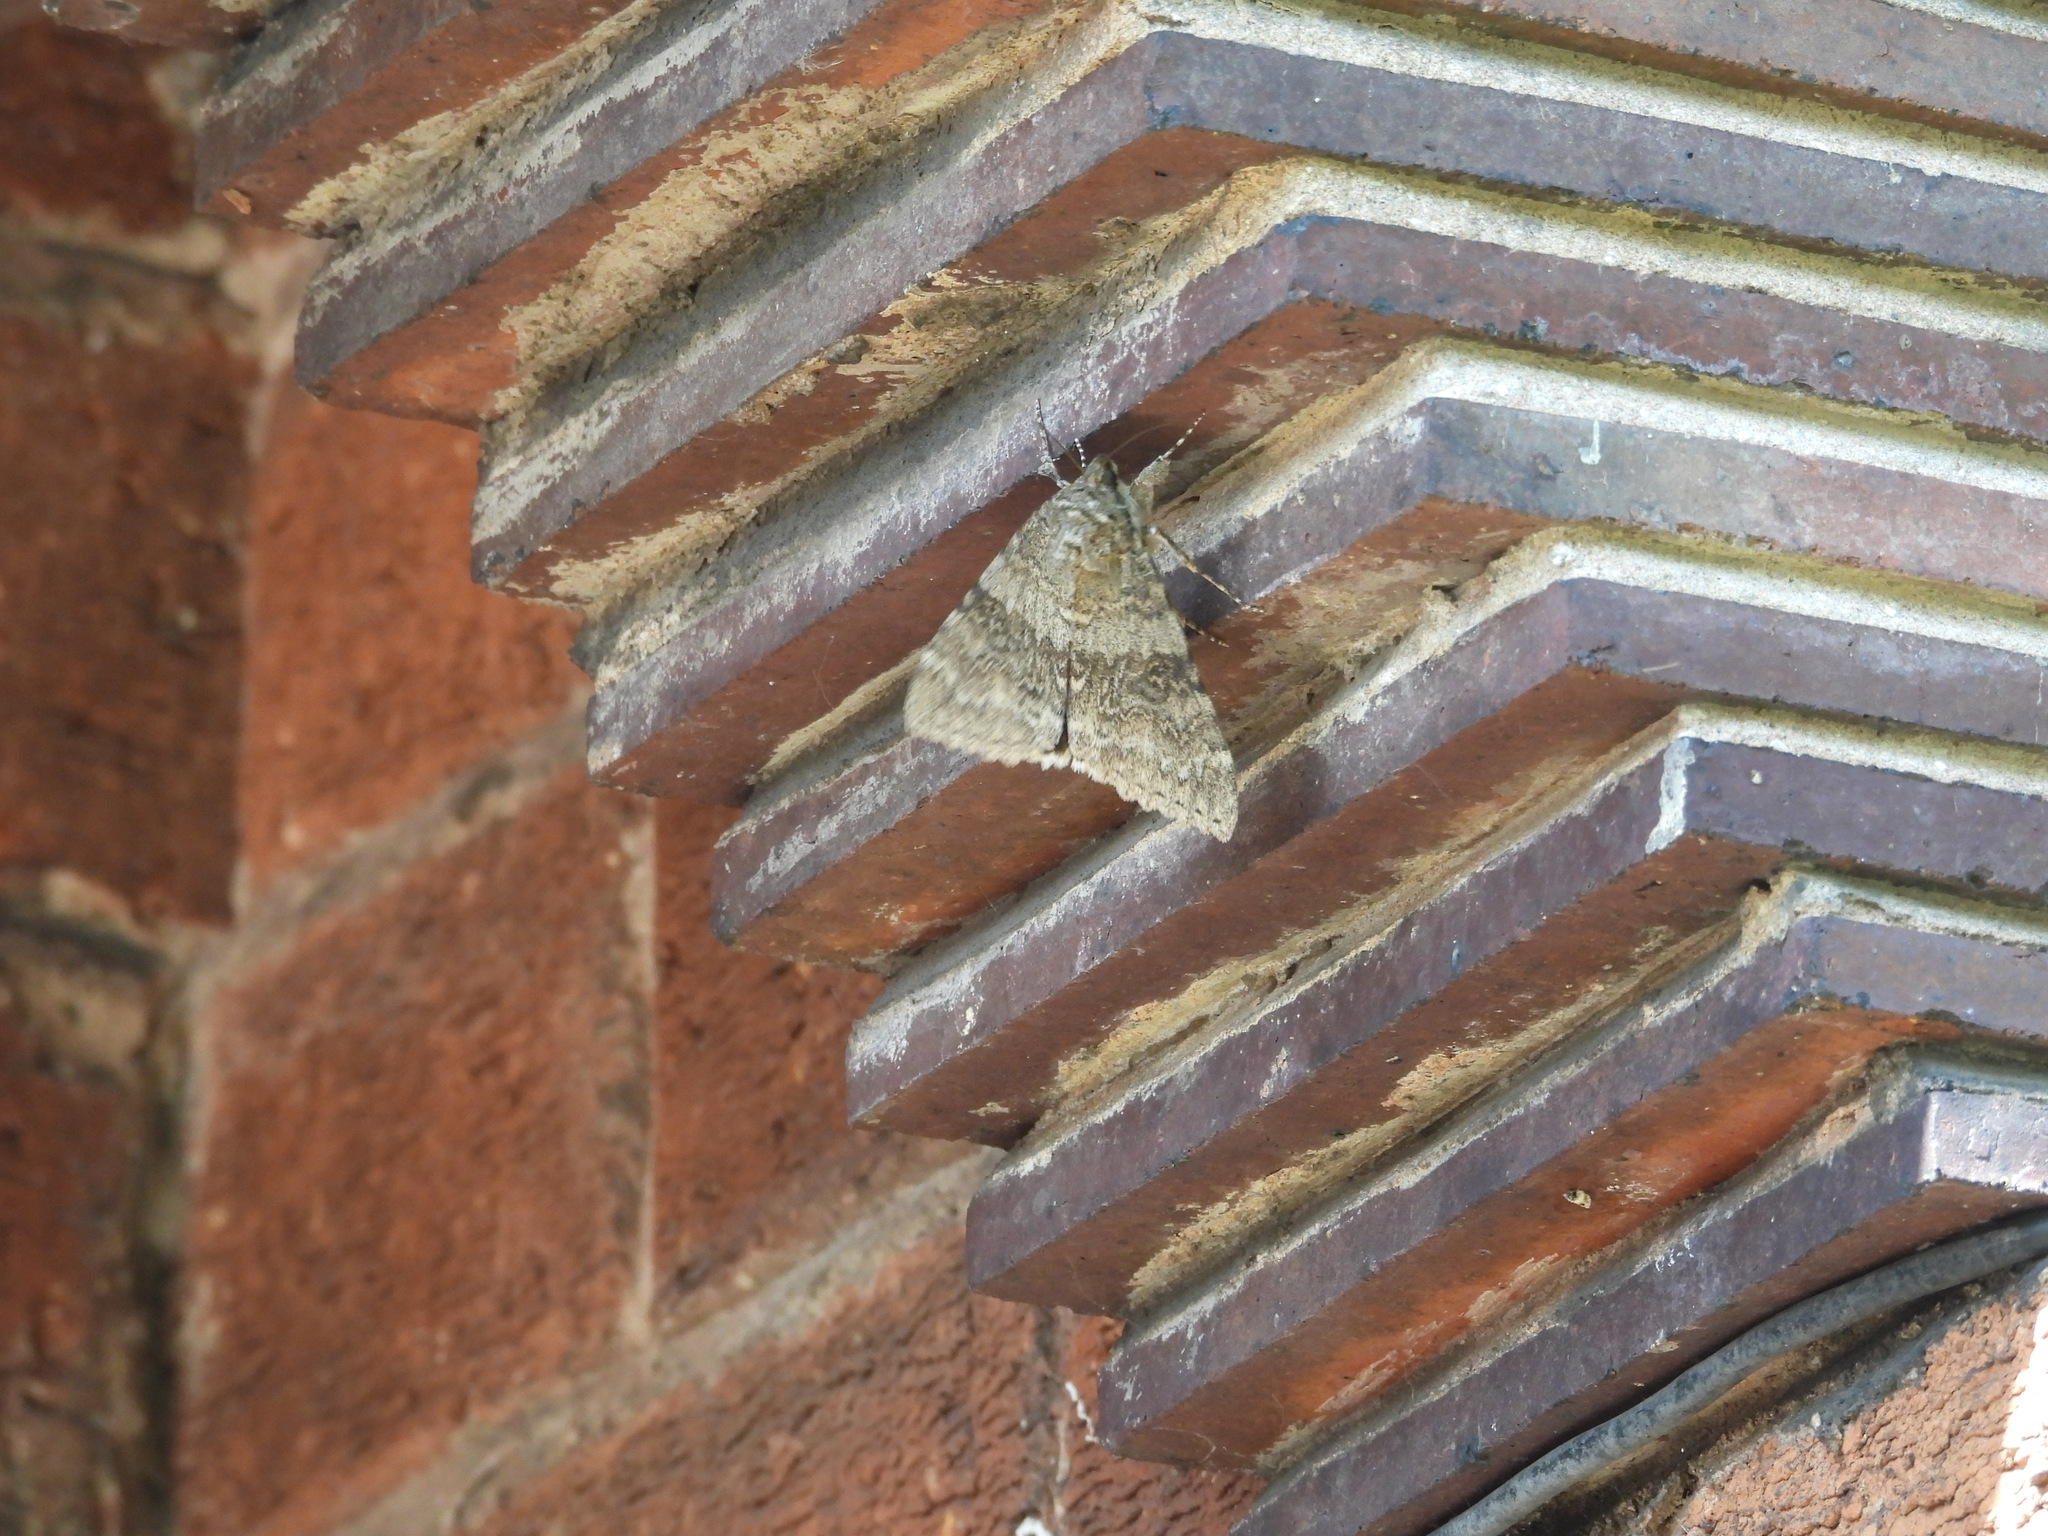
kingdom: Animalia
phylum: Arthropoda
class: Insecta
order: Lepidoptera
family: Erebidae
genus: Catocala
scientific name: Catocala nupta
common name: Red underwing
